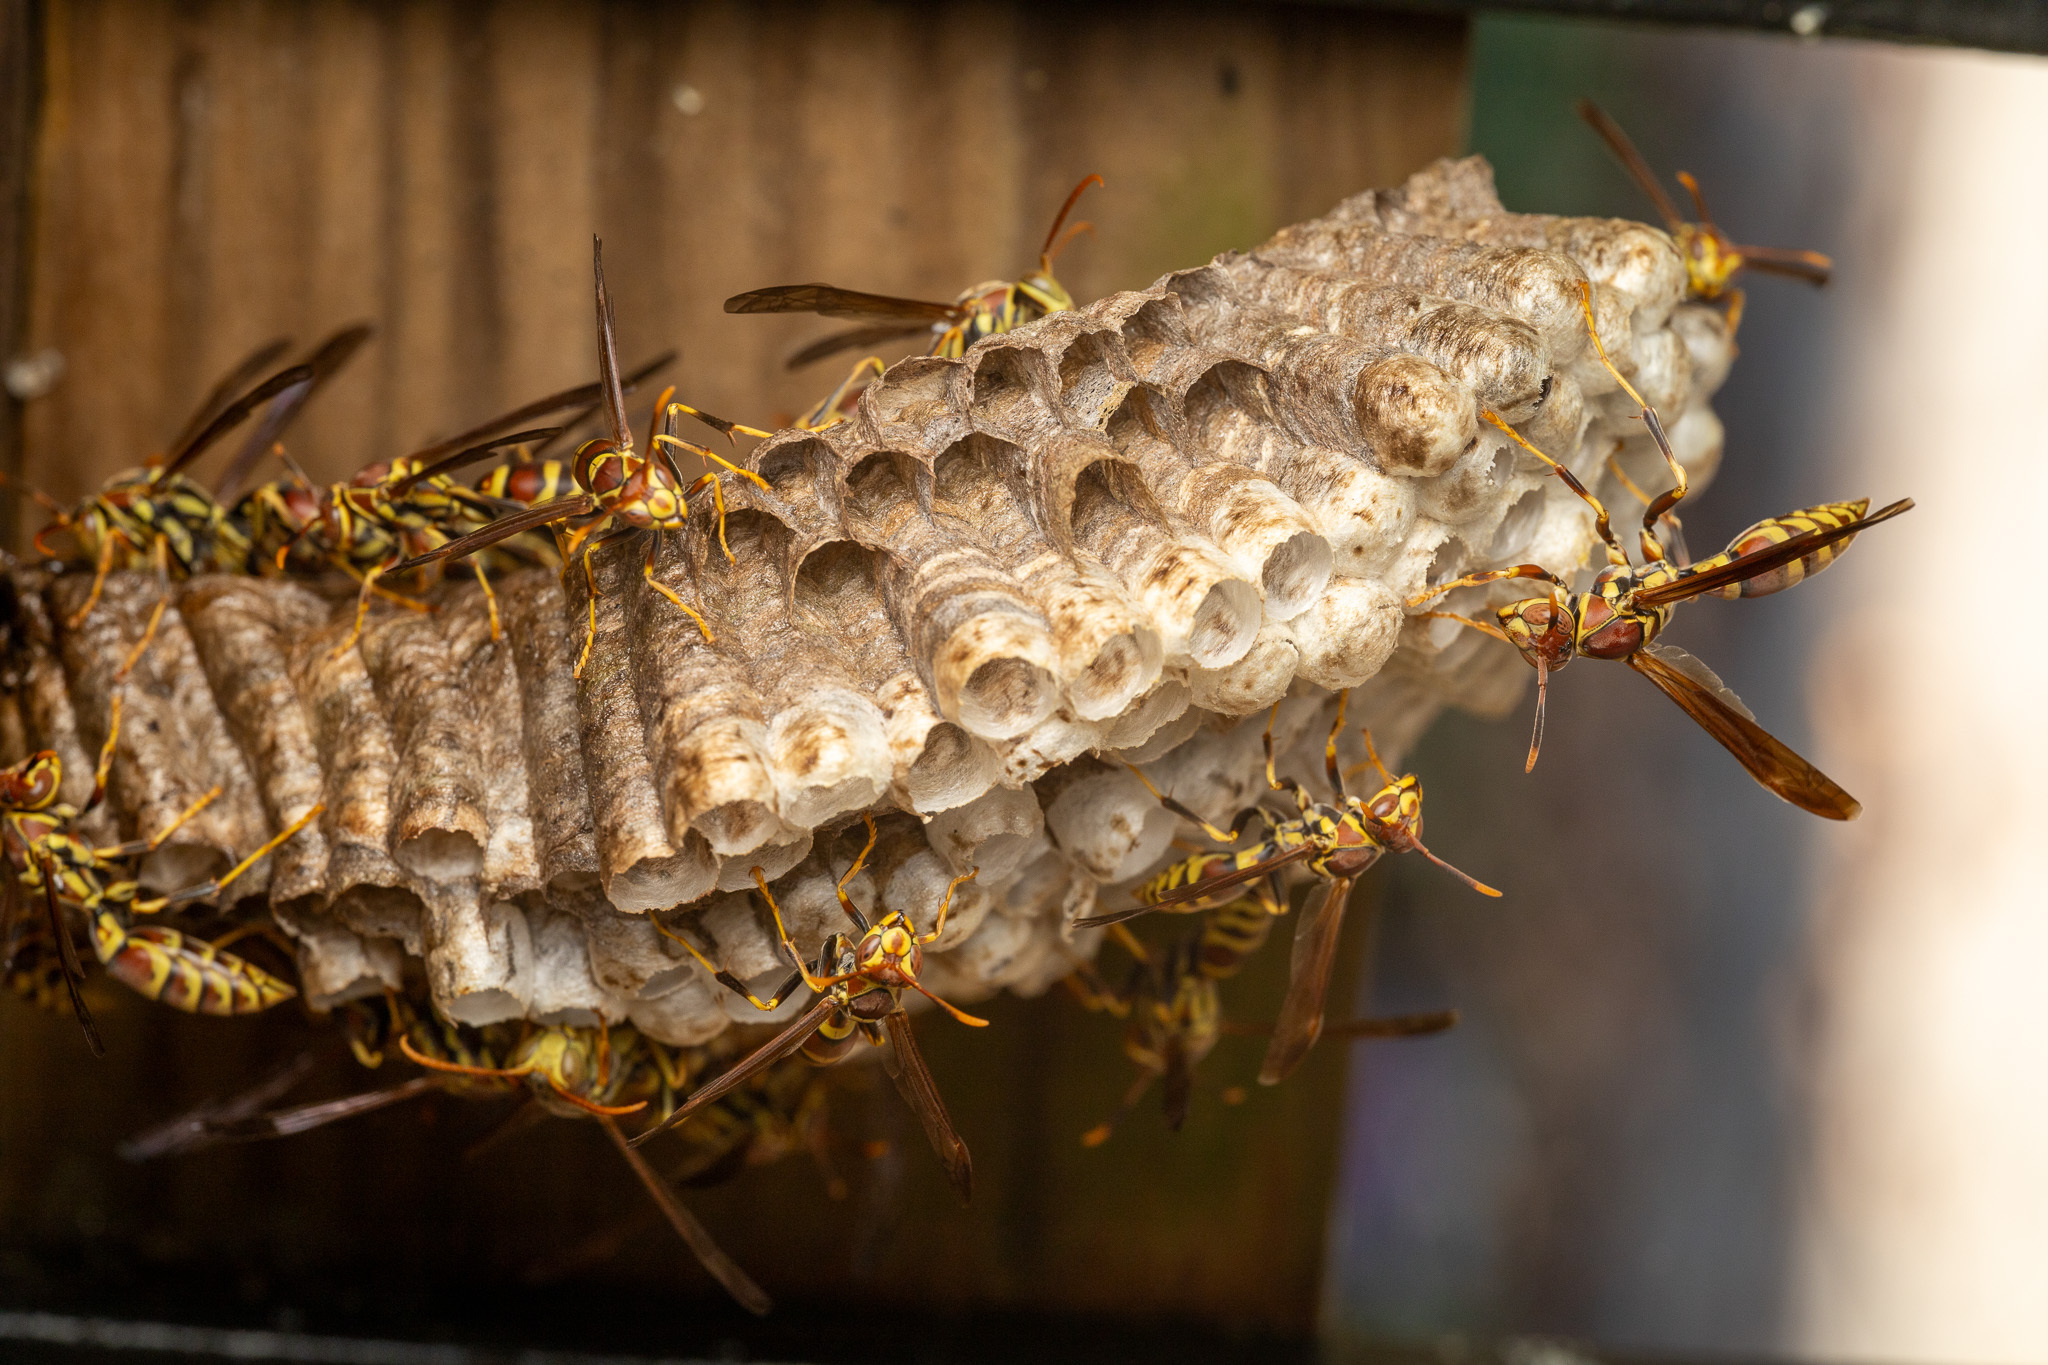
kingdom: Animalia
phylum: Arthropoda
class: Insecta
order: Hymenoptera
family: Eumenidae
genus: Polistes
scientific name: Polistes exclamans
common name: Paper wasp
